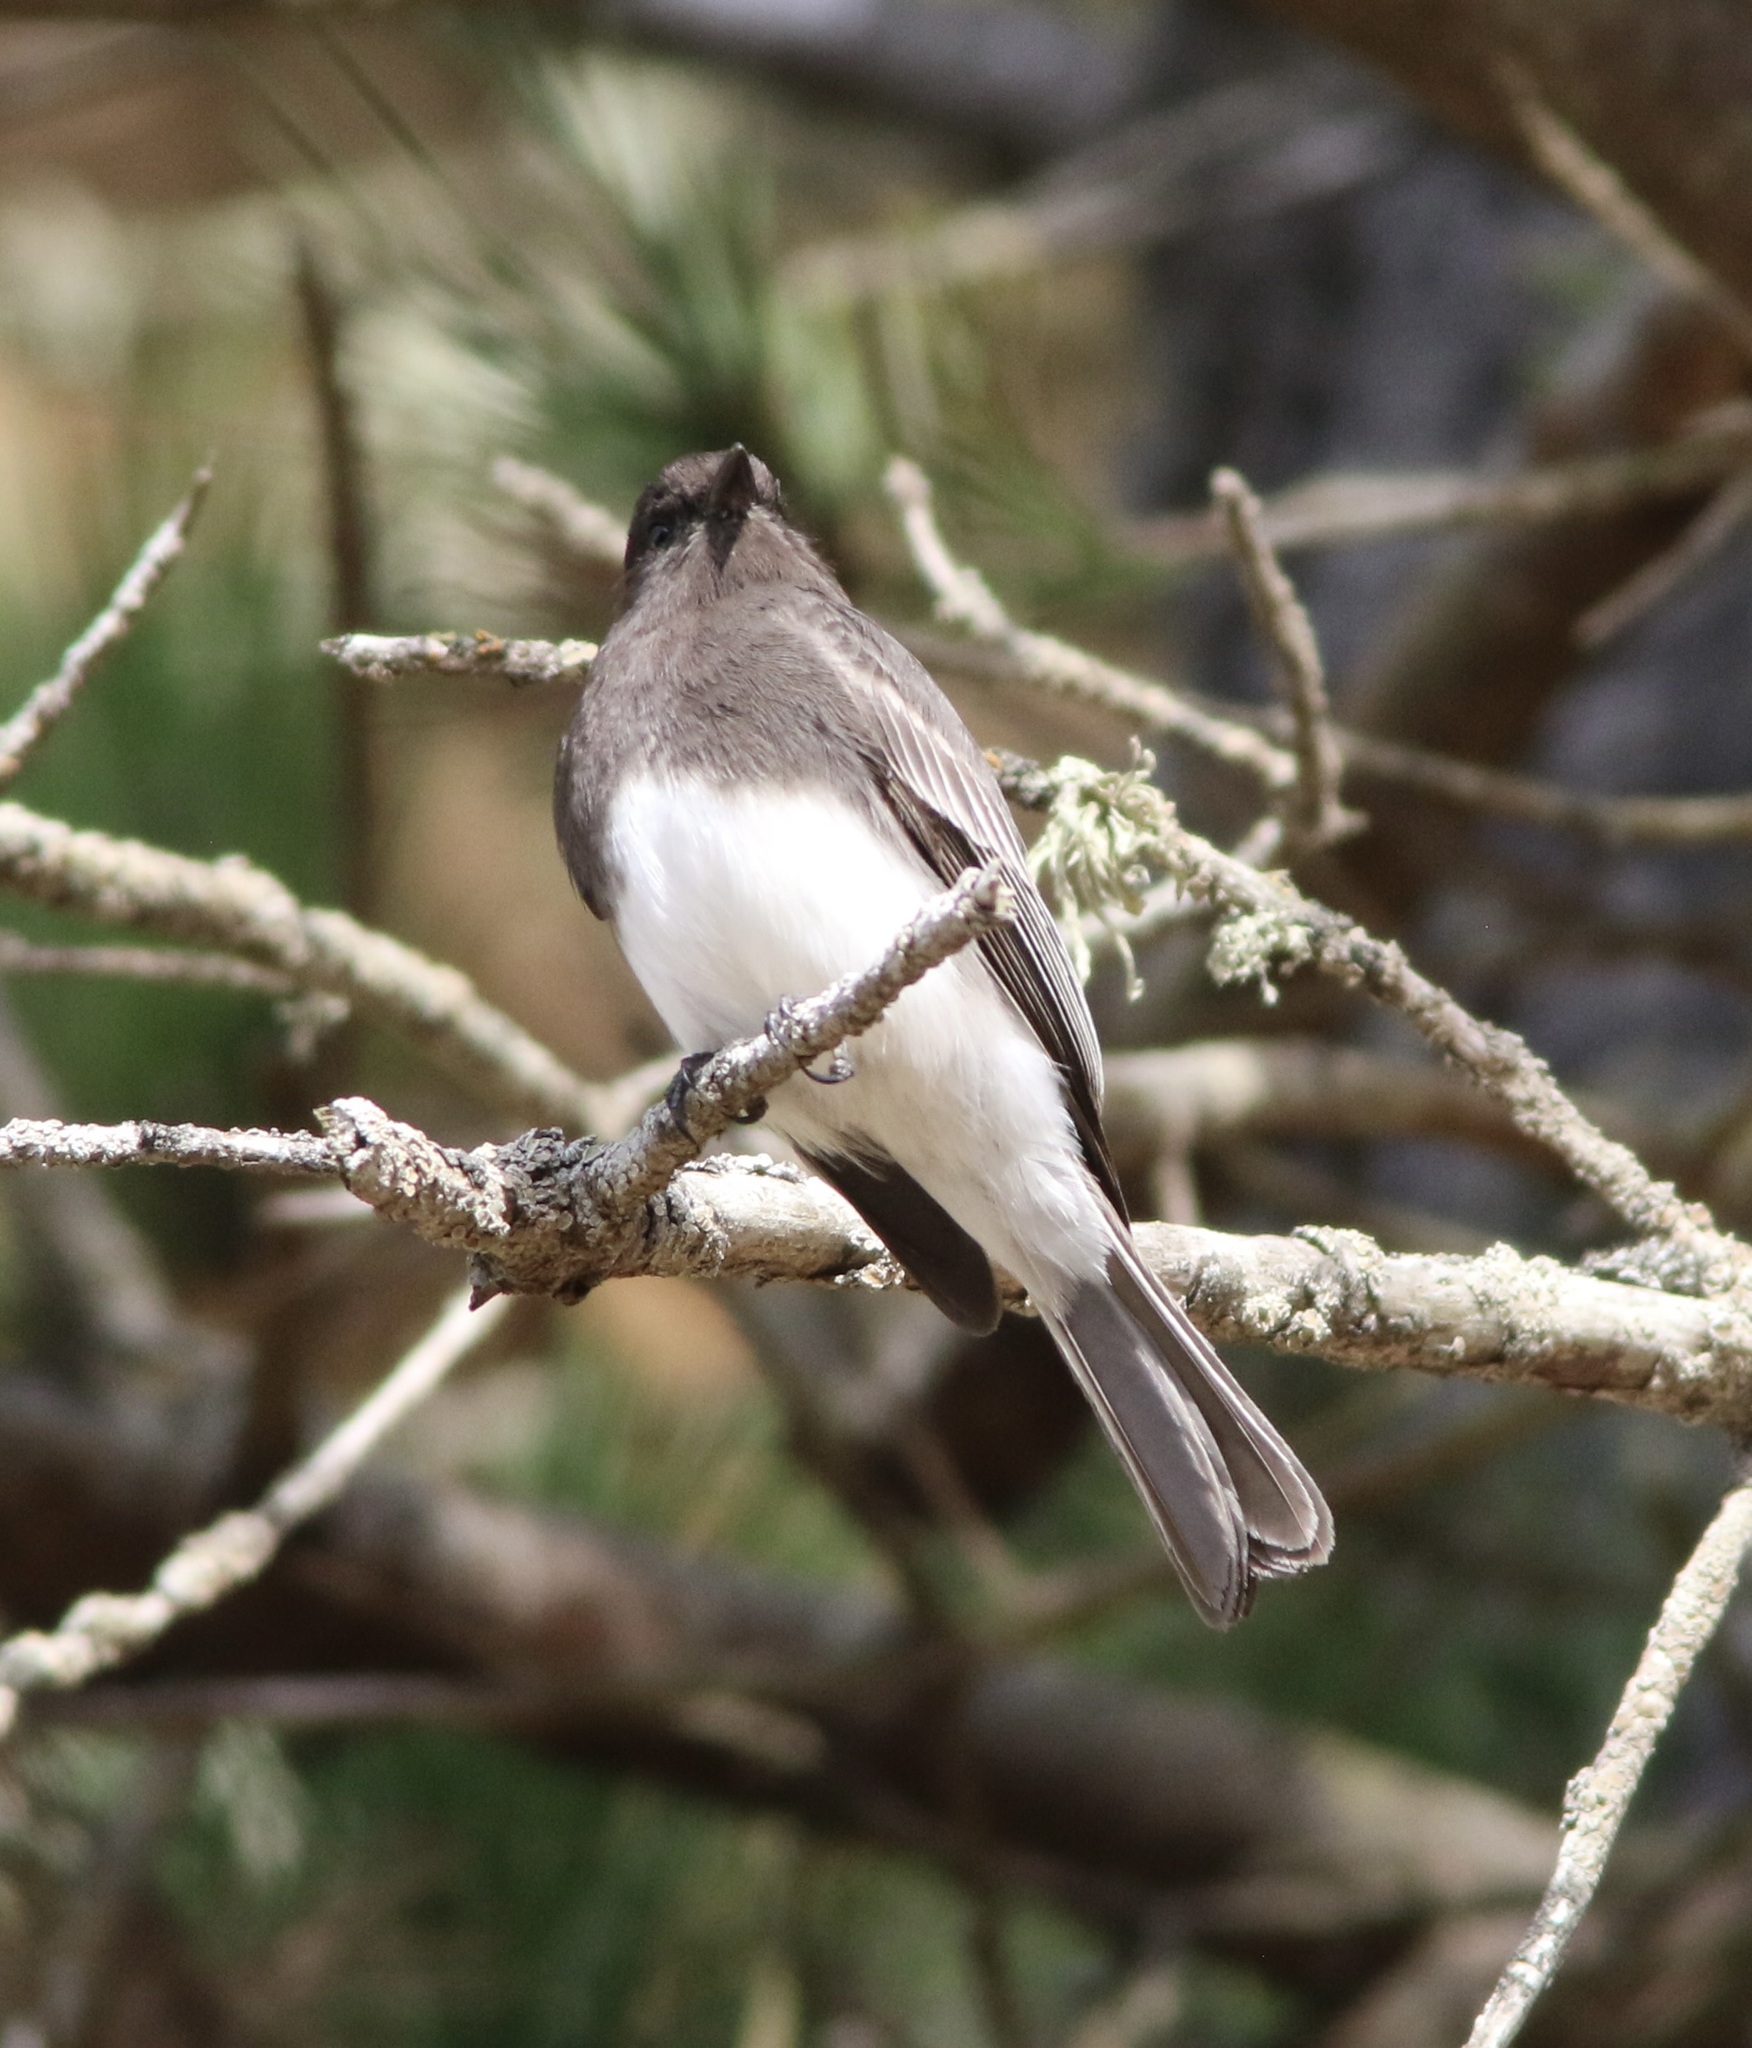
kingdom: Animalia
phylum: Chordata
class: Aves
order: Passeriformes
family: Tyrannidae
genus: Sayornis
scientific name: Sayornis nigricans
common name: Black phoebe
